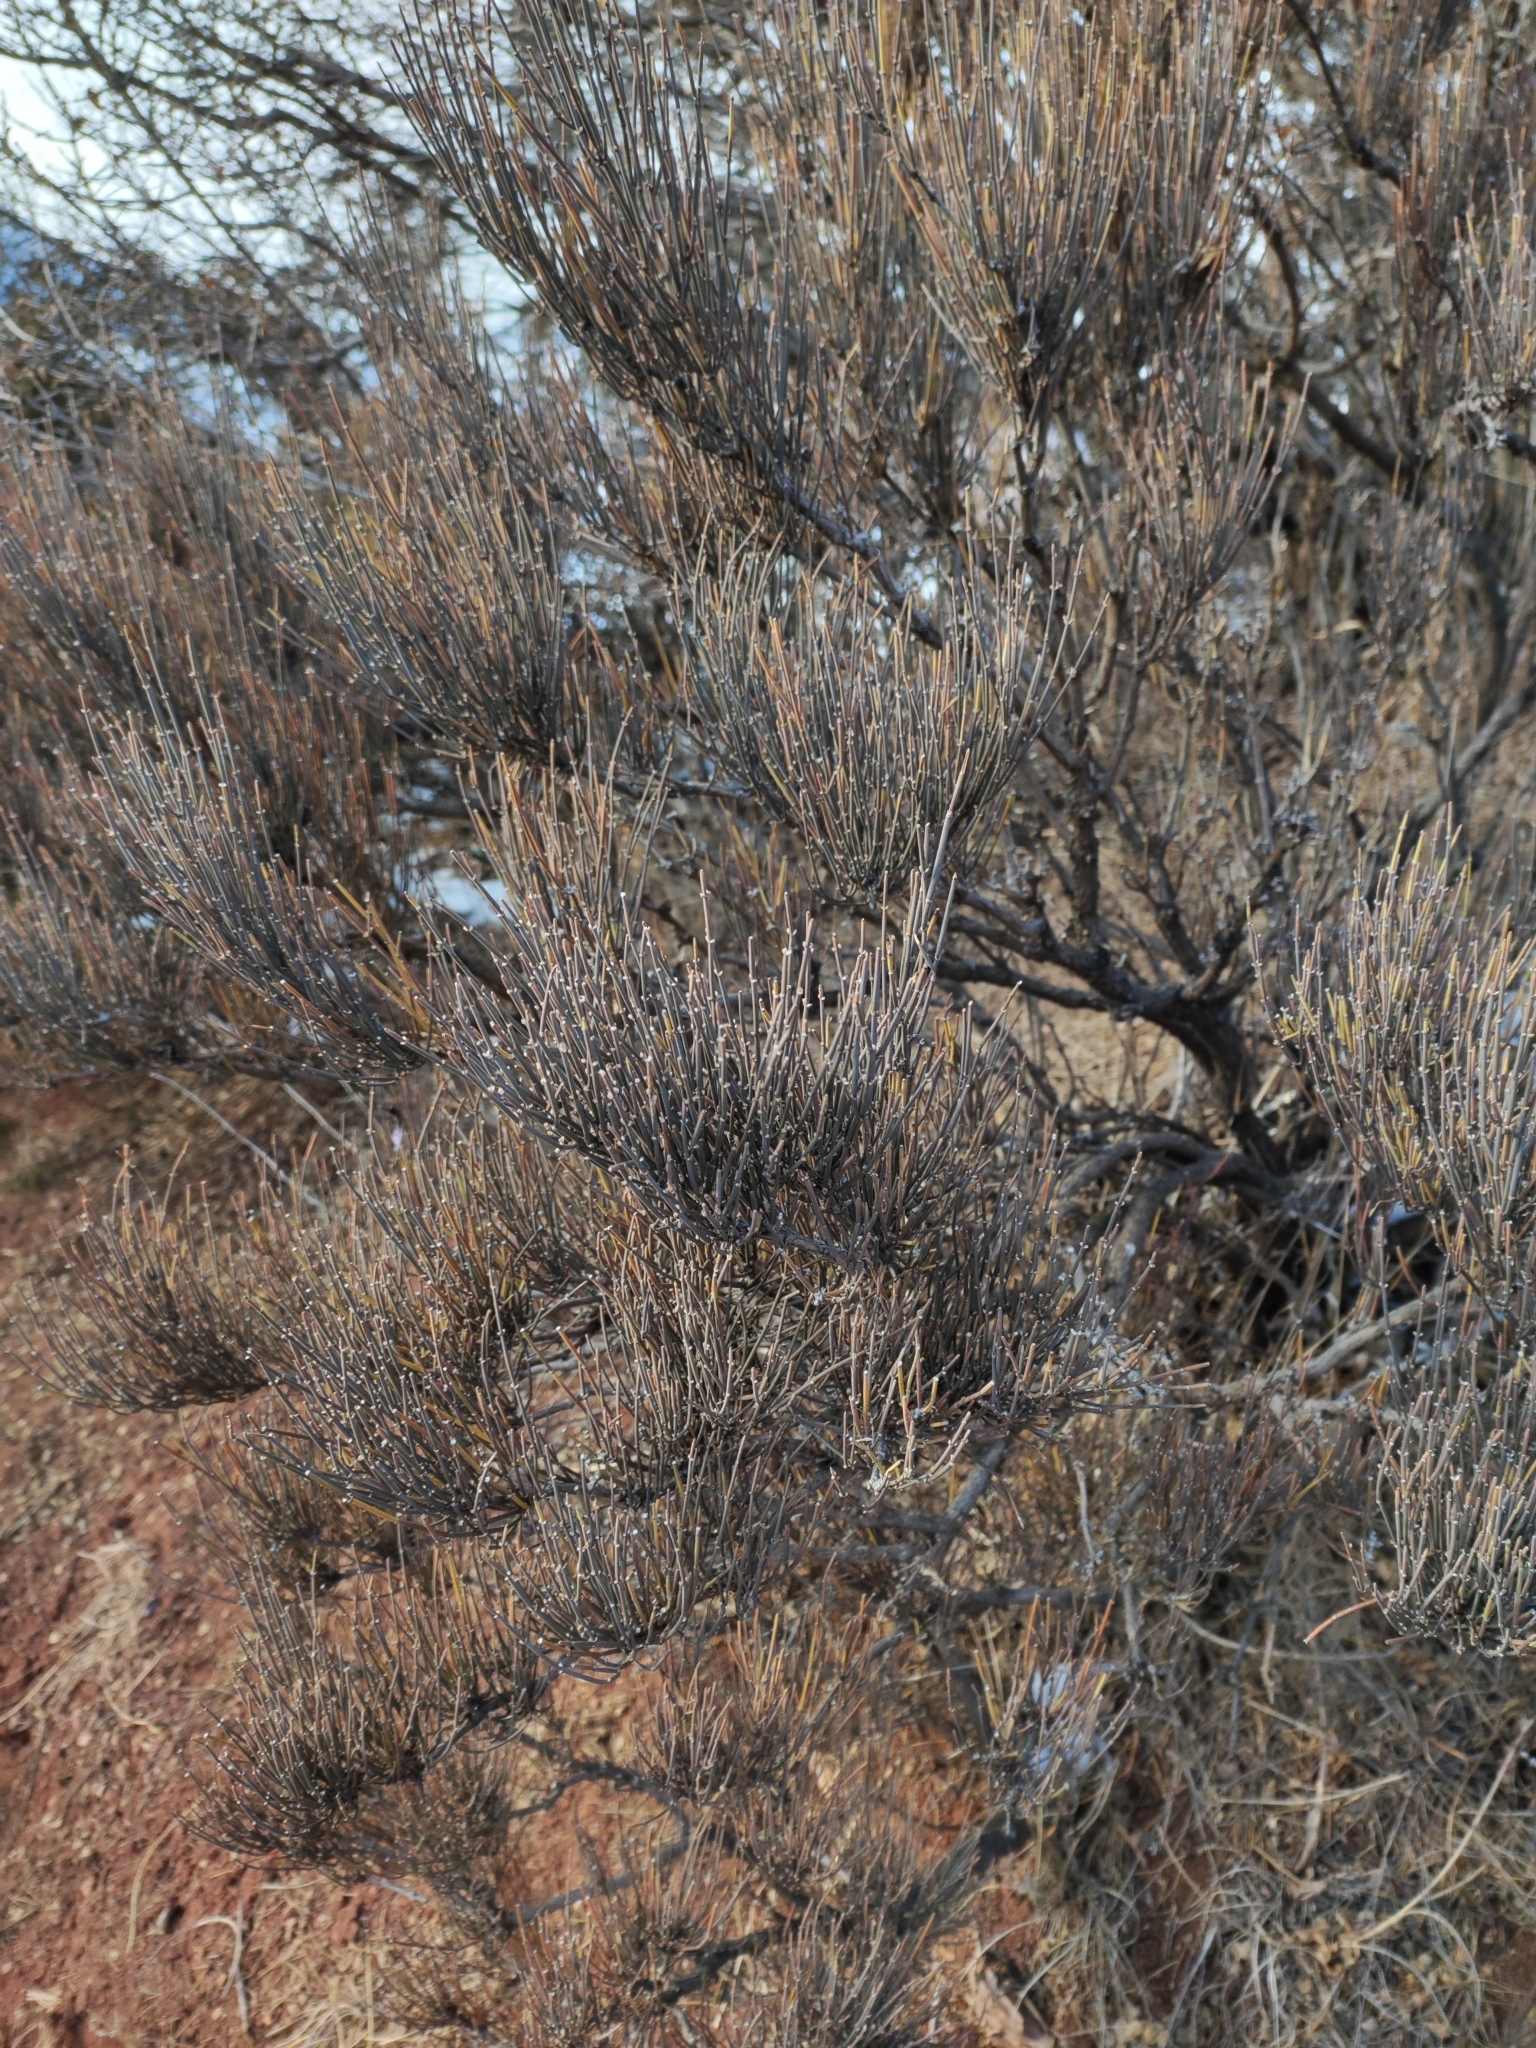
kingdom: Plantae
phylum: Tracheophyta
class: Gnetopsida
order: Ephedrales
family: Ephedraceae
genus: Ephedra
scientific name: Ephedra equisetina
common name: Mongolian ephedra
